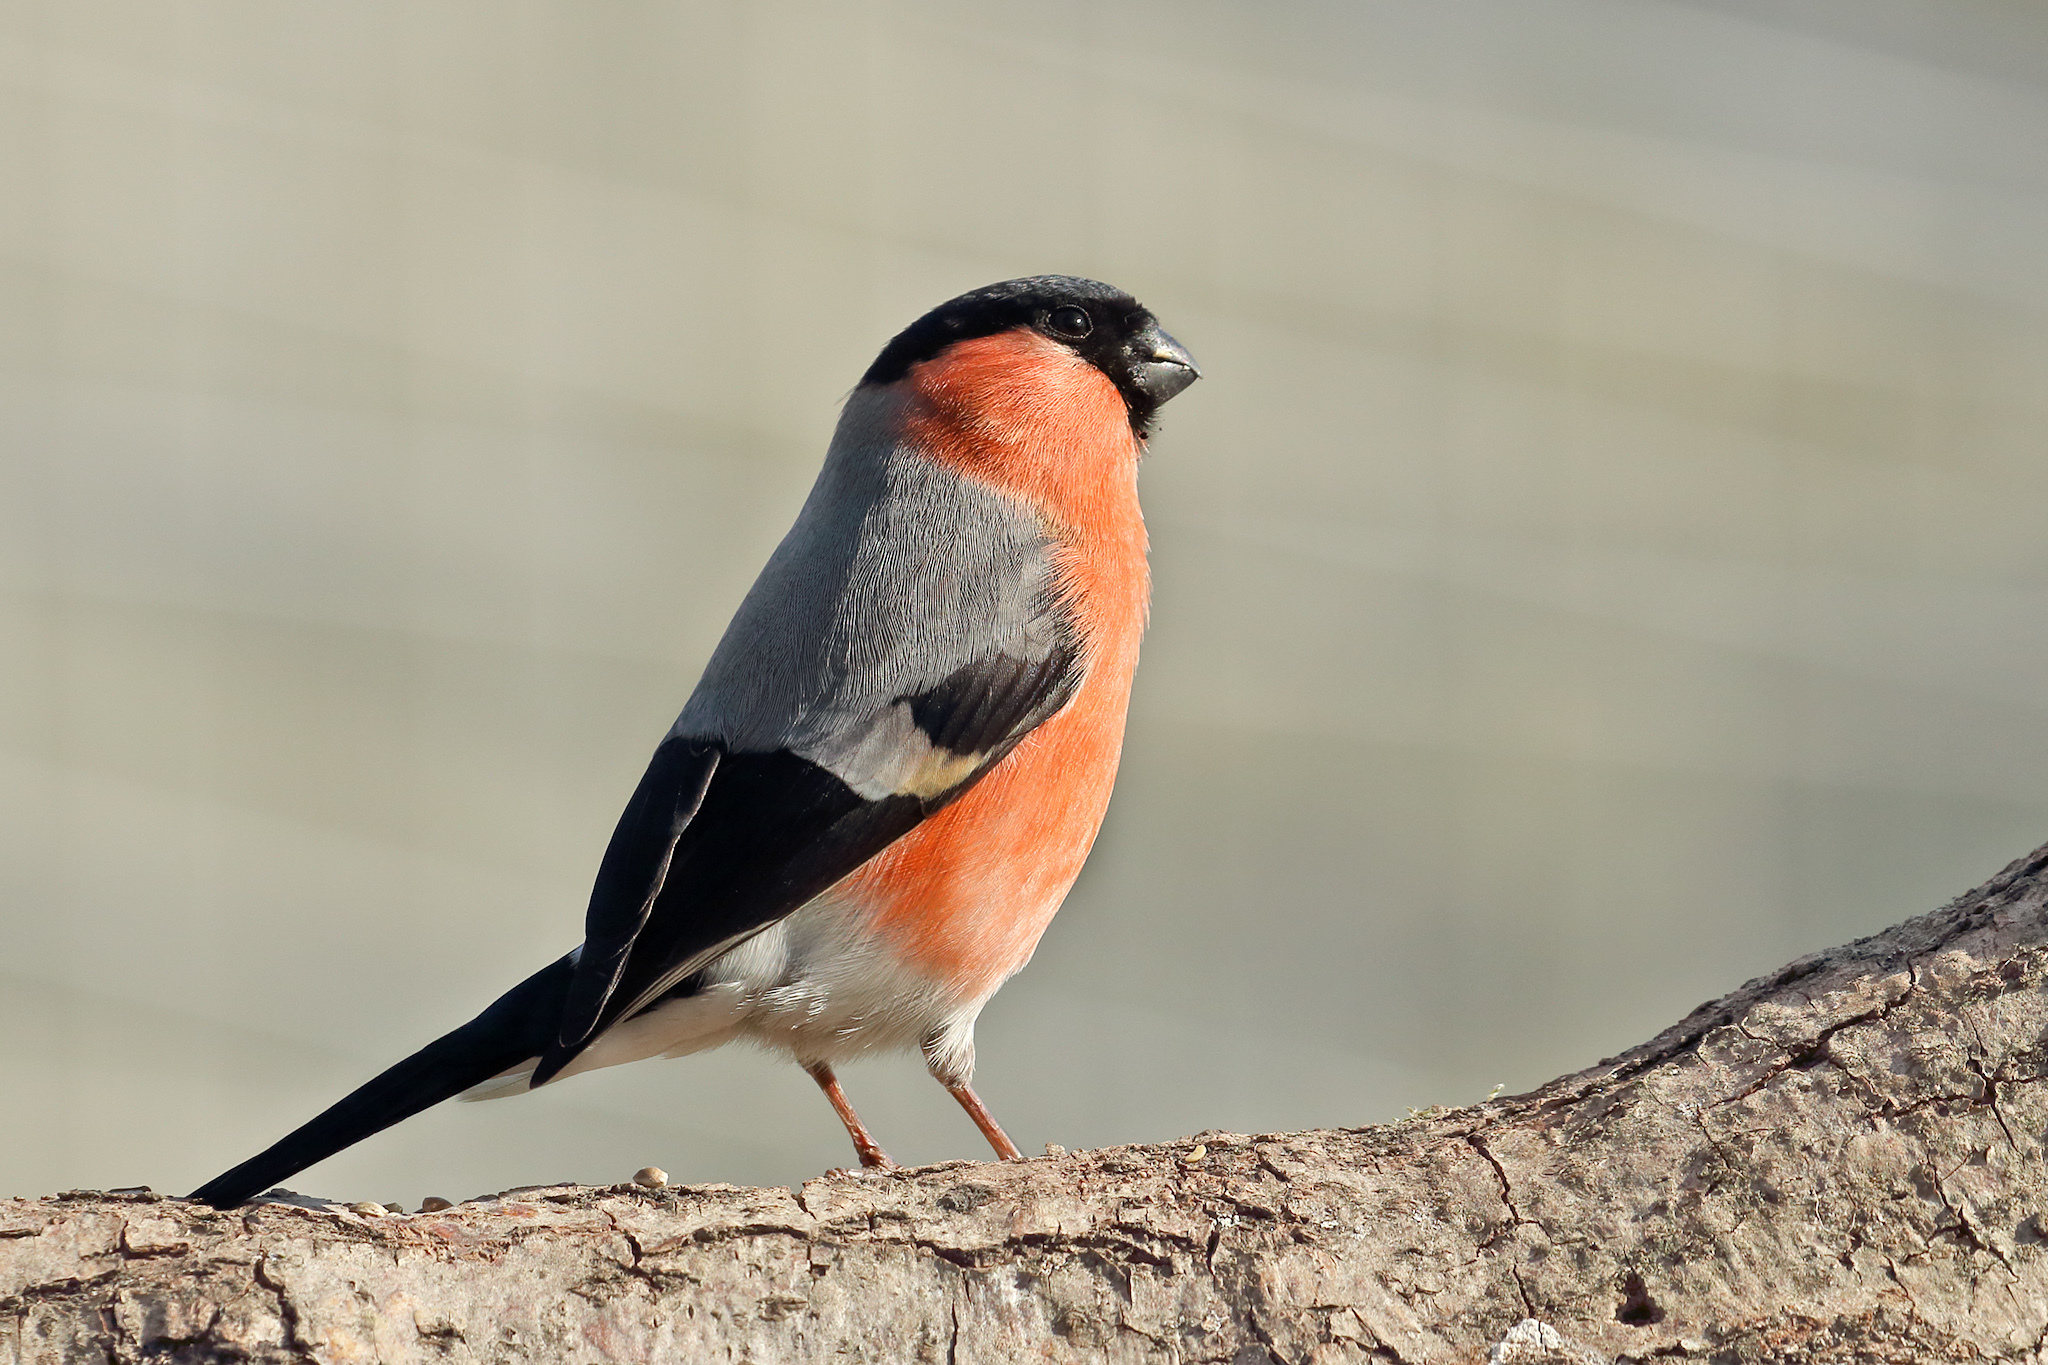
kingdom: Animalia
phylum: Chordata
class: Aves
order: Passeriformes
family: Fringillidae
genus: Pyrrhula
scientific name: Pyrrhula pyrrhula
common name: Eurasian bullfinch
